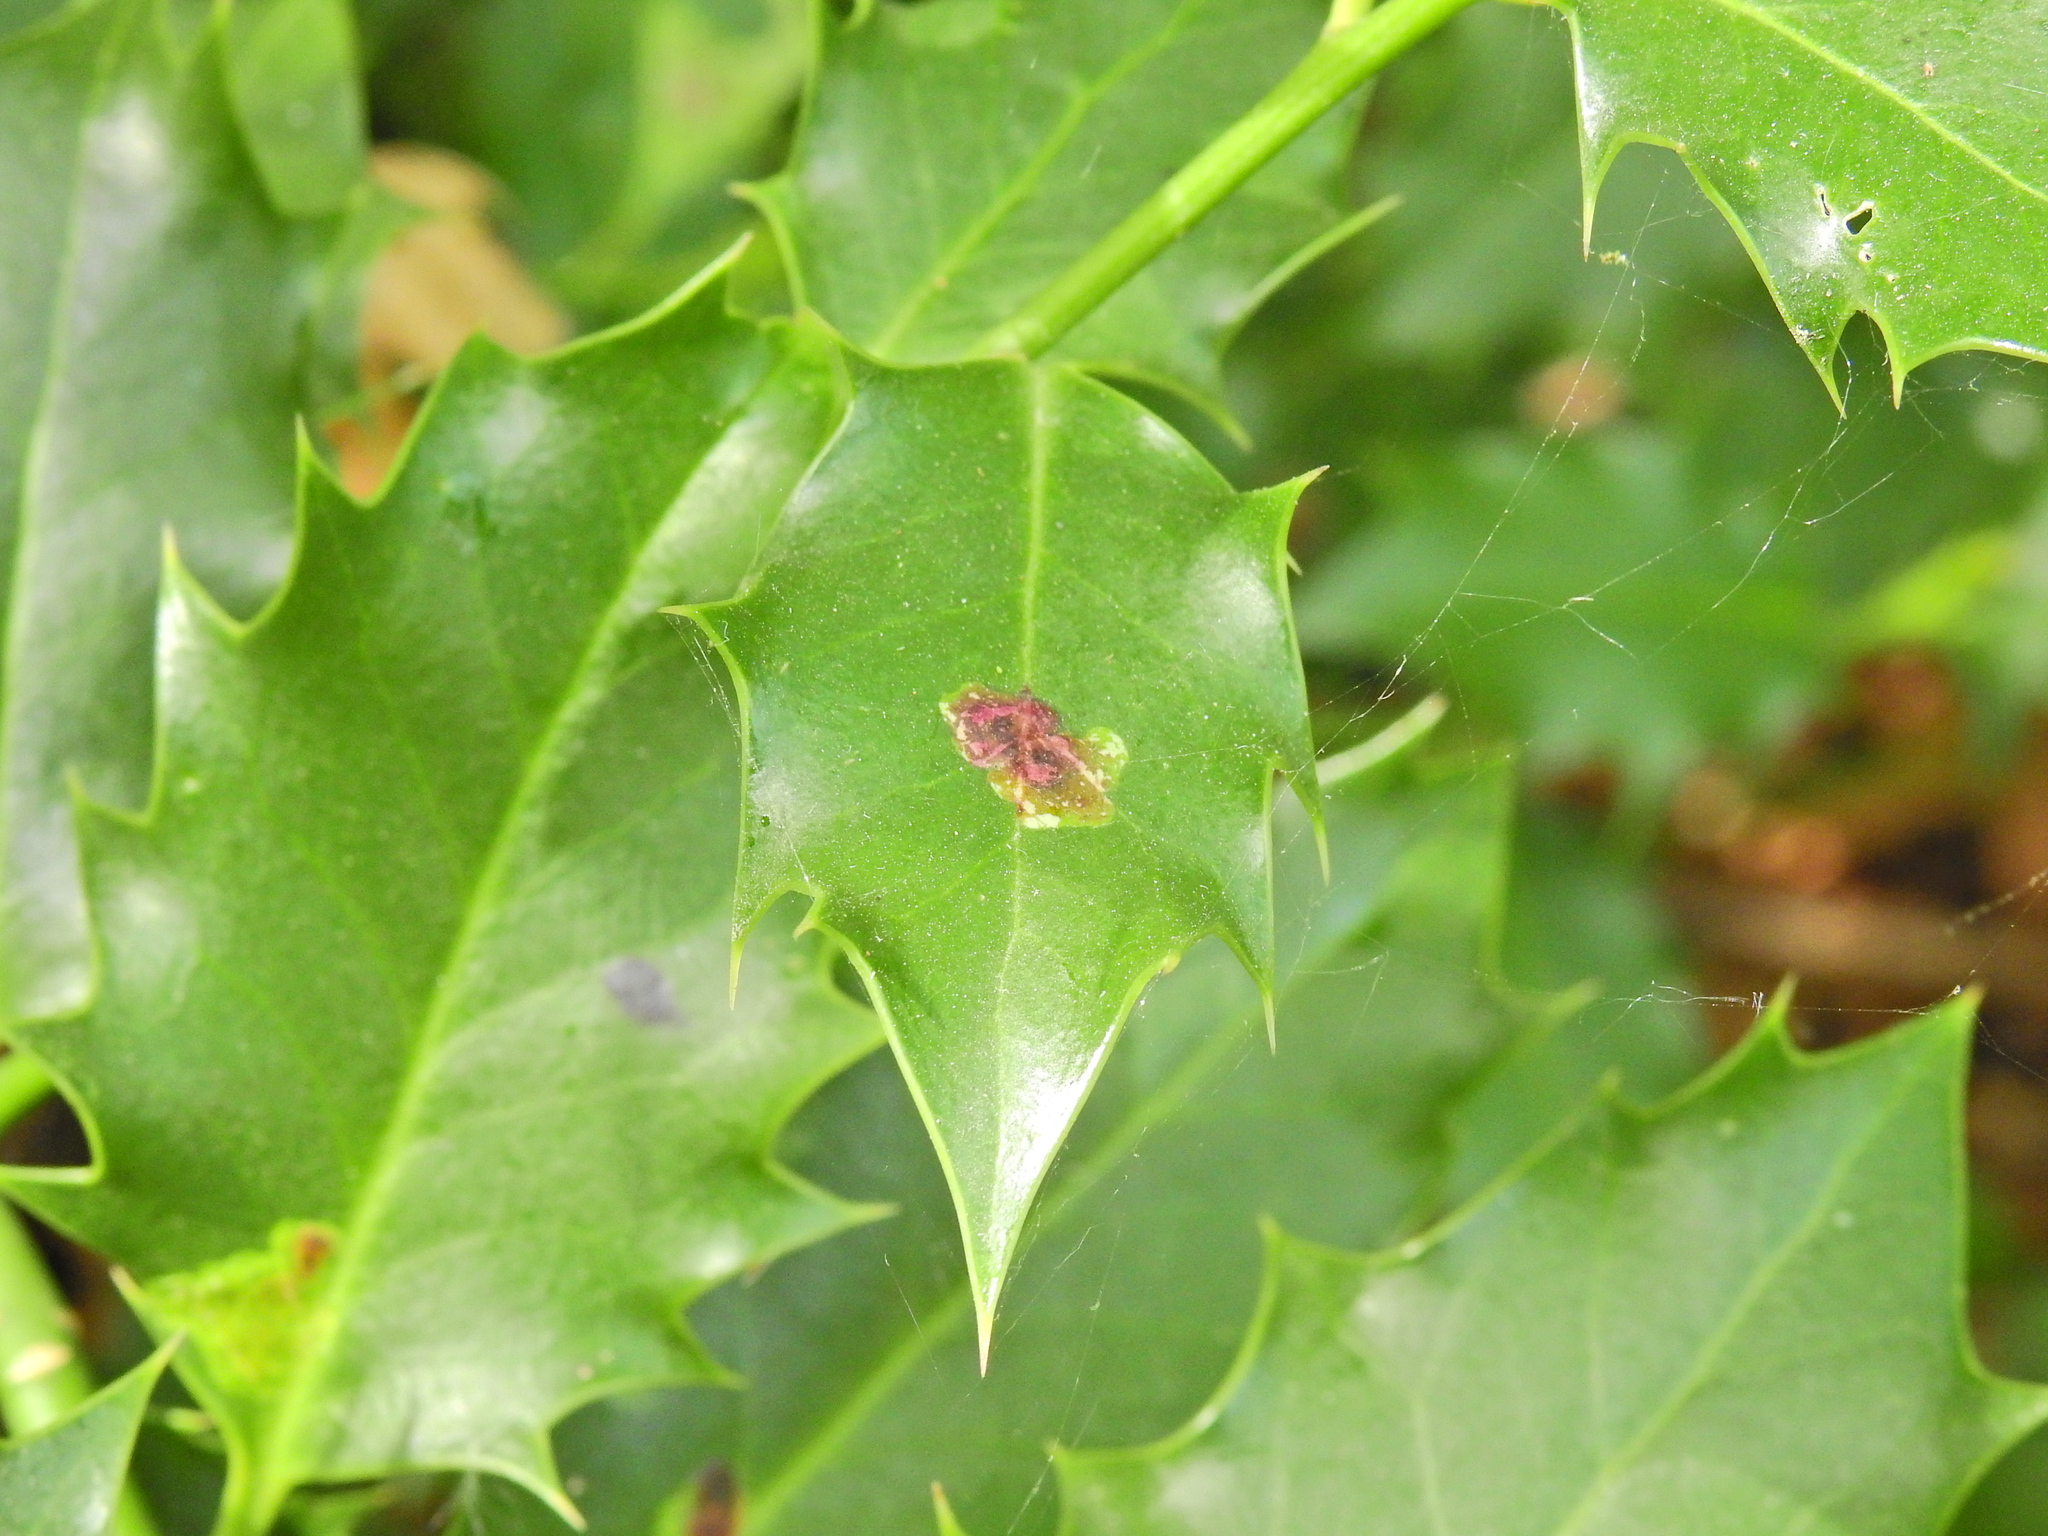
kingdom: Animalia
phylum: Arthropoda
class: Insecta
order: Diptera
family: Agromyzidae
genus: Phytomyza
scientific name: Phytomyza ilicis
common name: Holly leafminer
